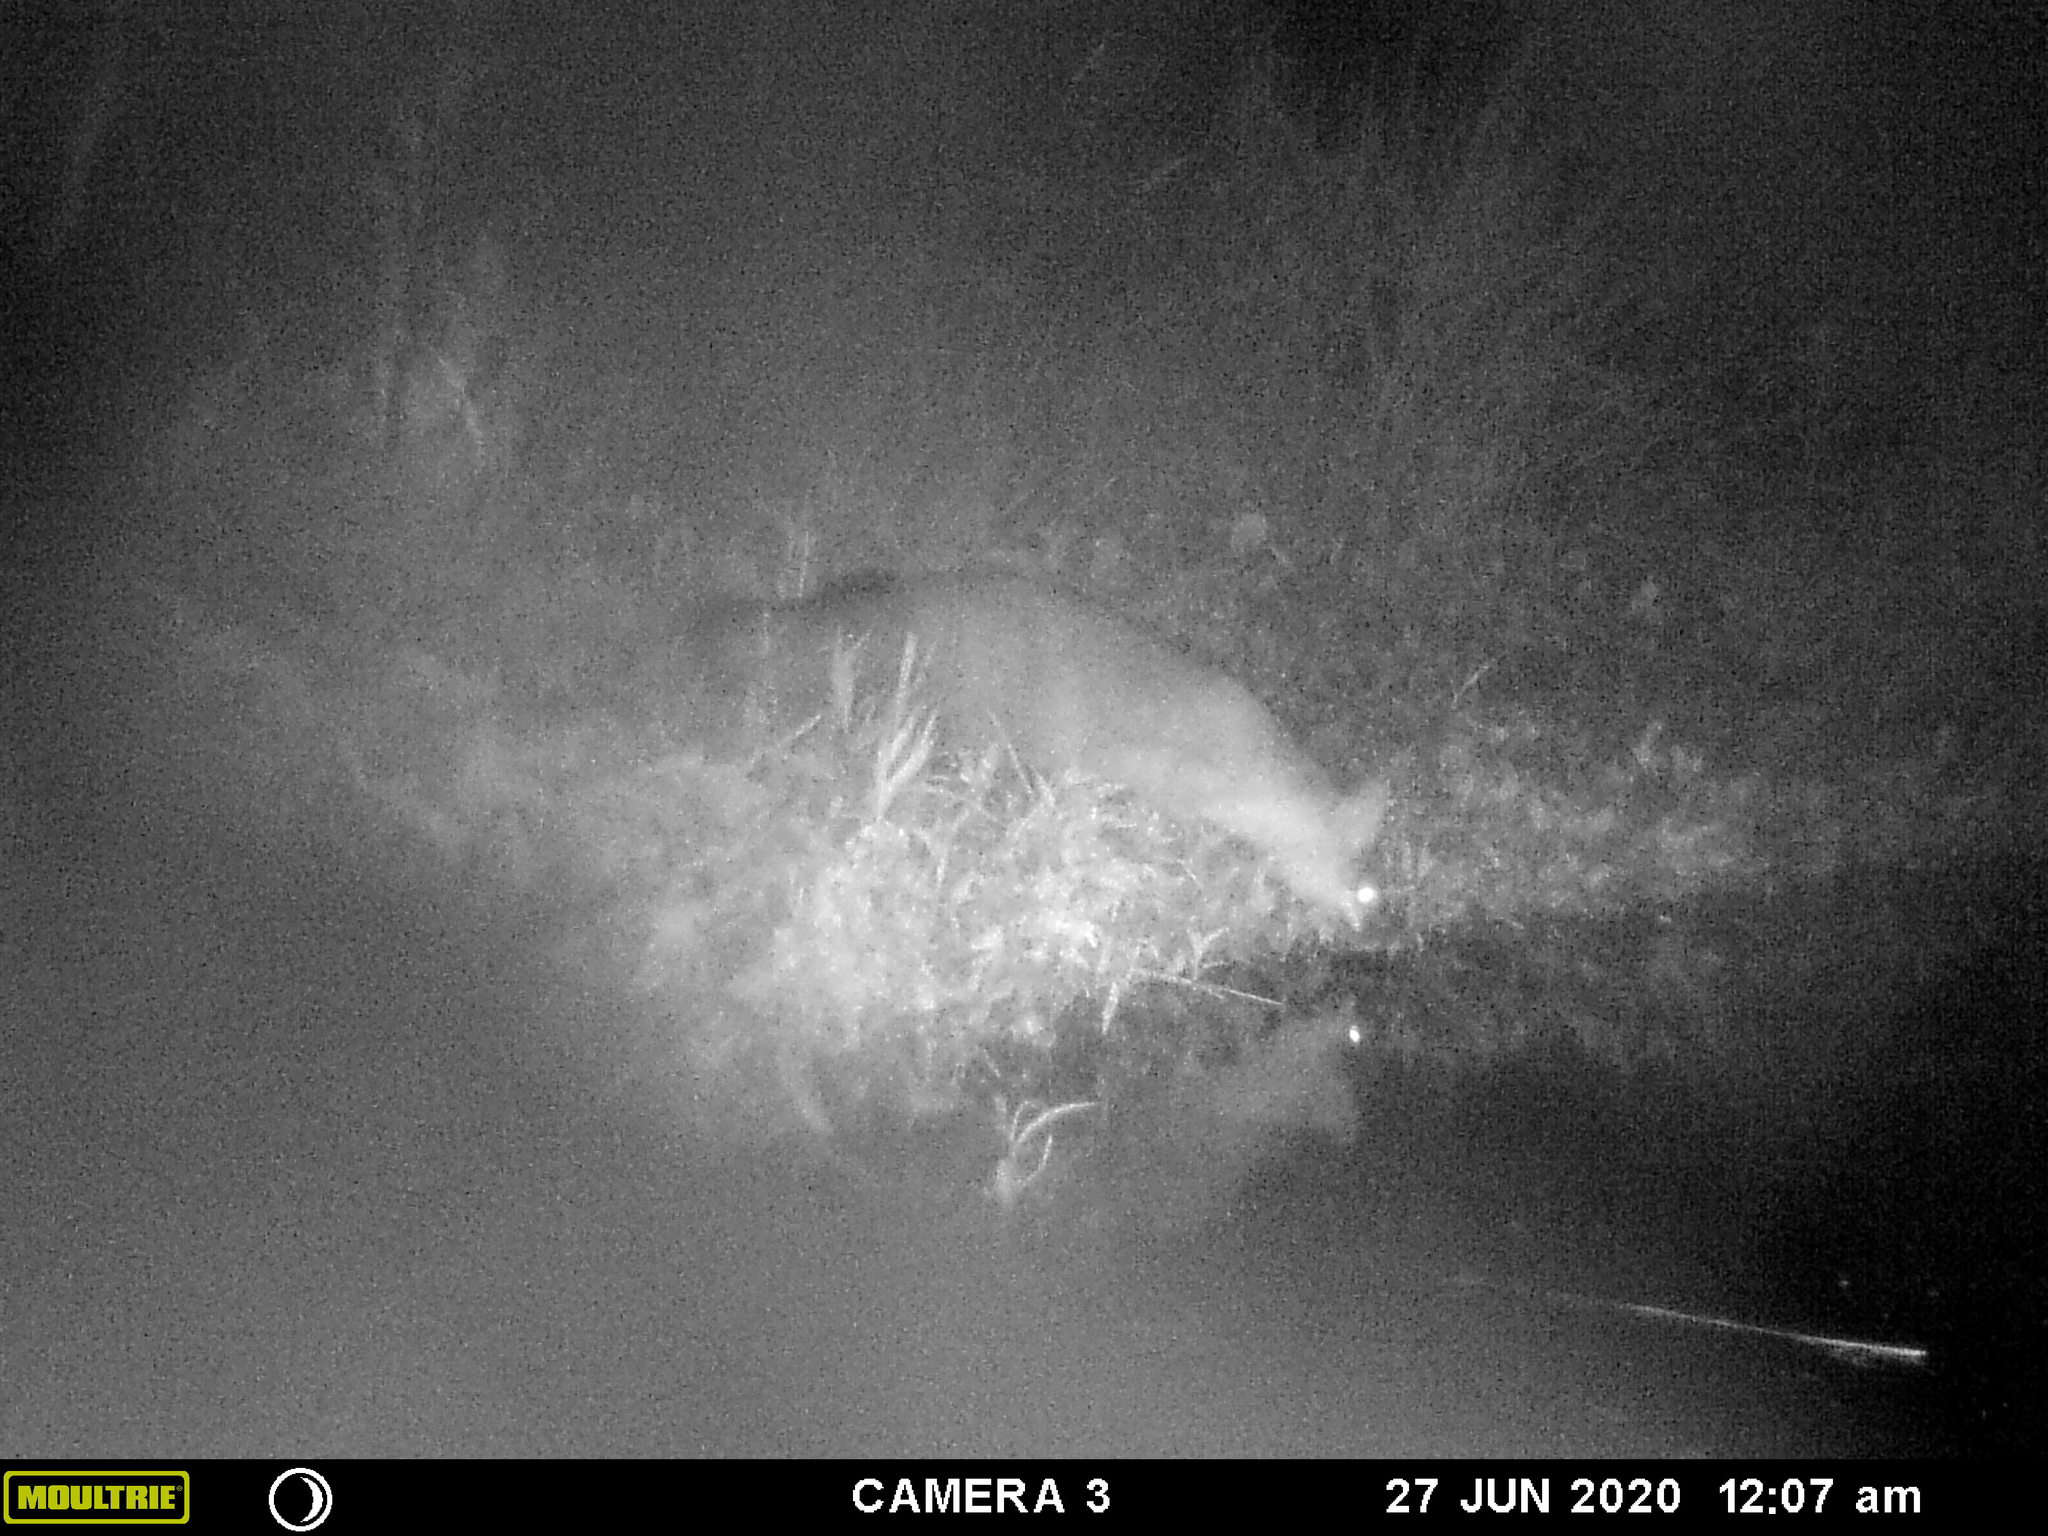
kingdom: Animalia
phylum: Chordata
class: Mammalia
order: Carnivora
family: Canidae
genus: Urocyon
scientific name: Urocyon cinereoargenteus
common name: Gray fox
